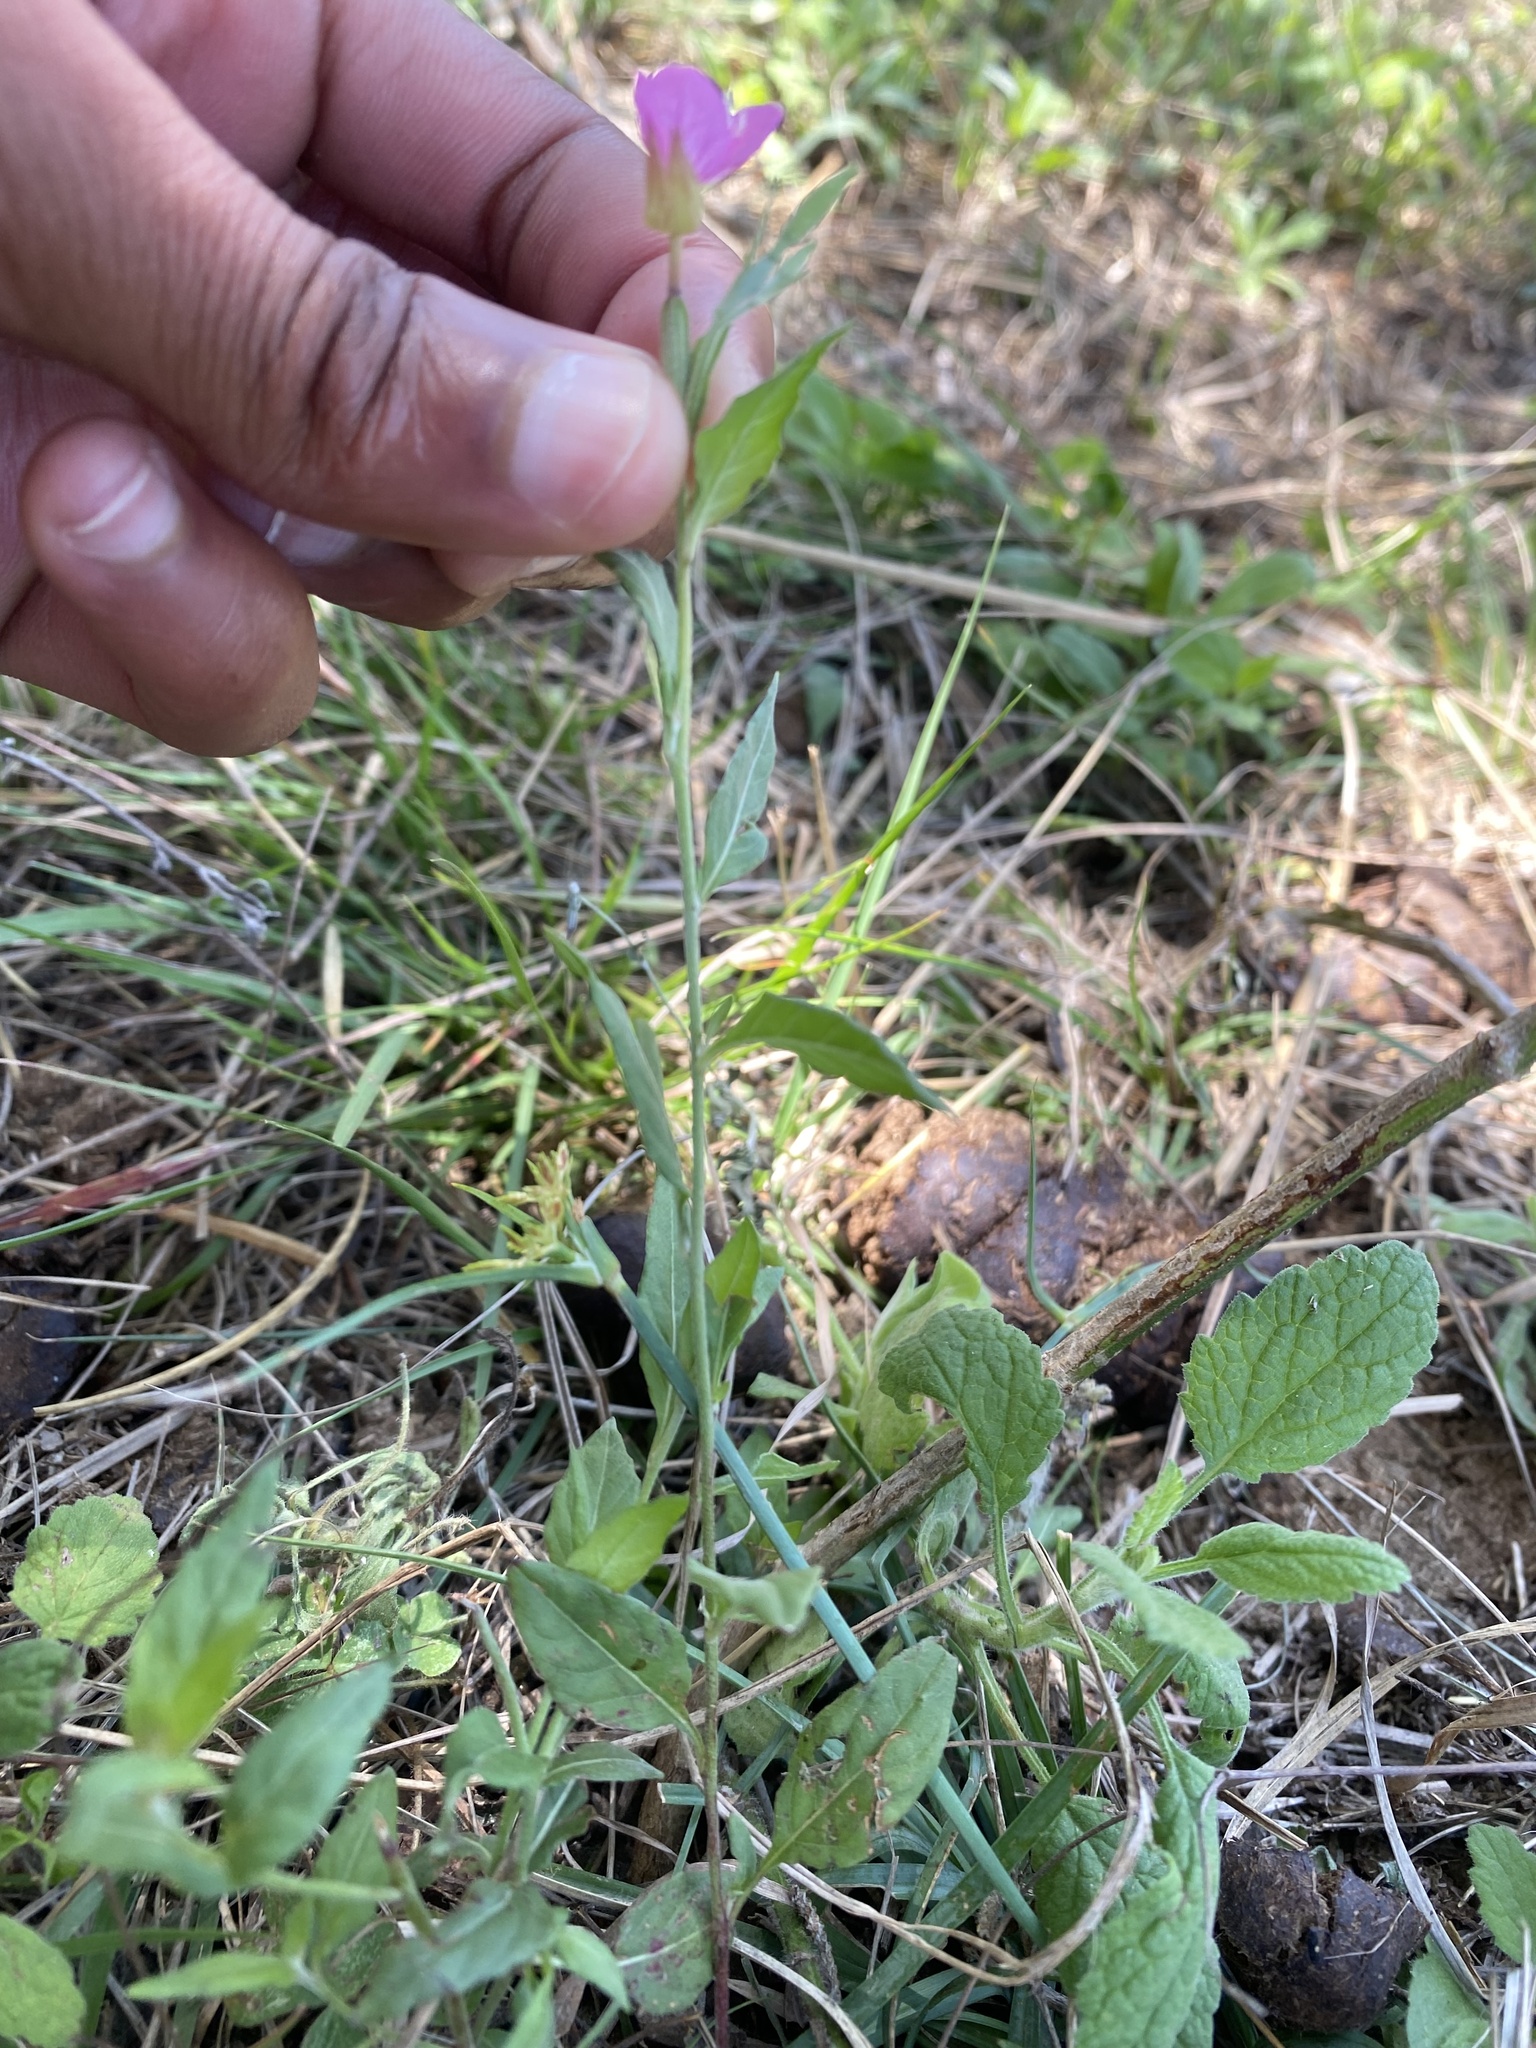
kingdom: Plantae
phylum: Tracheophyta
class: Magnoliopsida
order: Myrtales
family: Onagraceae
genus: Oenothera
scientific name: Oenothera rosea
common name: Rosy evening-primrose
